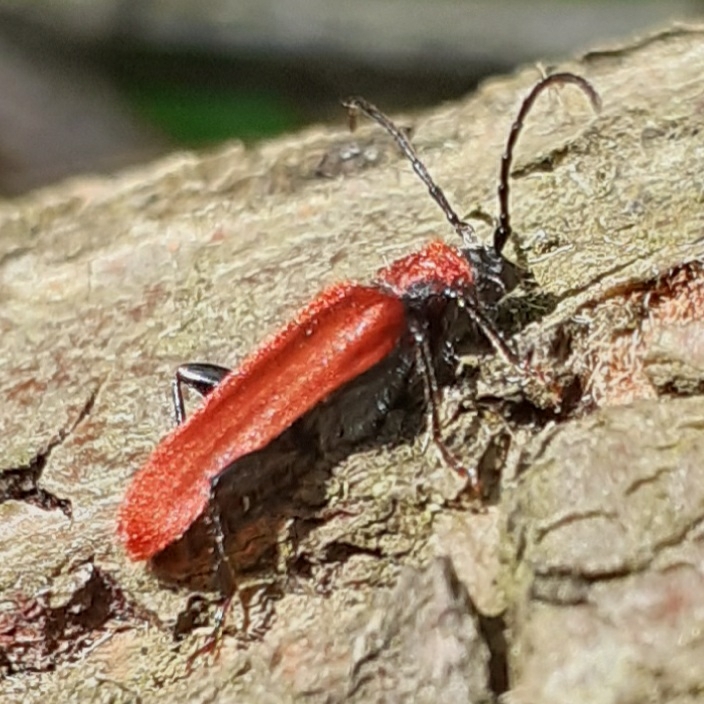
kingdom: Animalia
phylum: Arthropoda
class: Insecta
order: Coleoptera
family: Cerambycidae
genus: Pyrrhidium
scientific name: Pyrrhidium sanguineum
